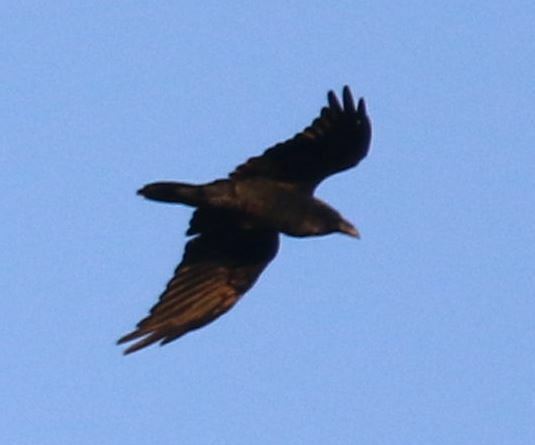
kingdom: Animalia
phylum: Chordata
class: Aves
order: Passeriformes
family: Corvidae
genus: Corvus
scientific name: Corvus corax
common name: Common raven
